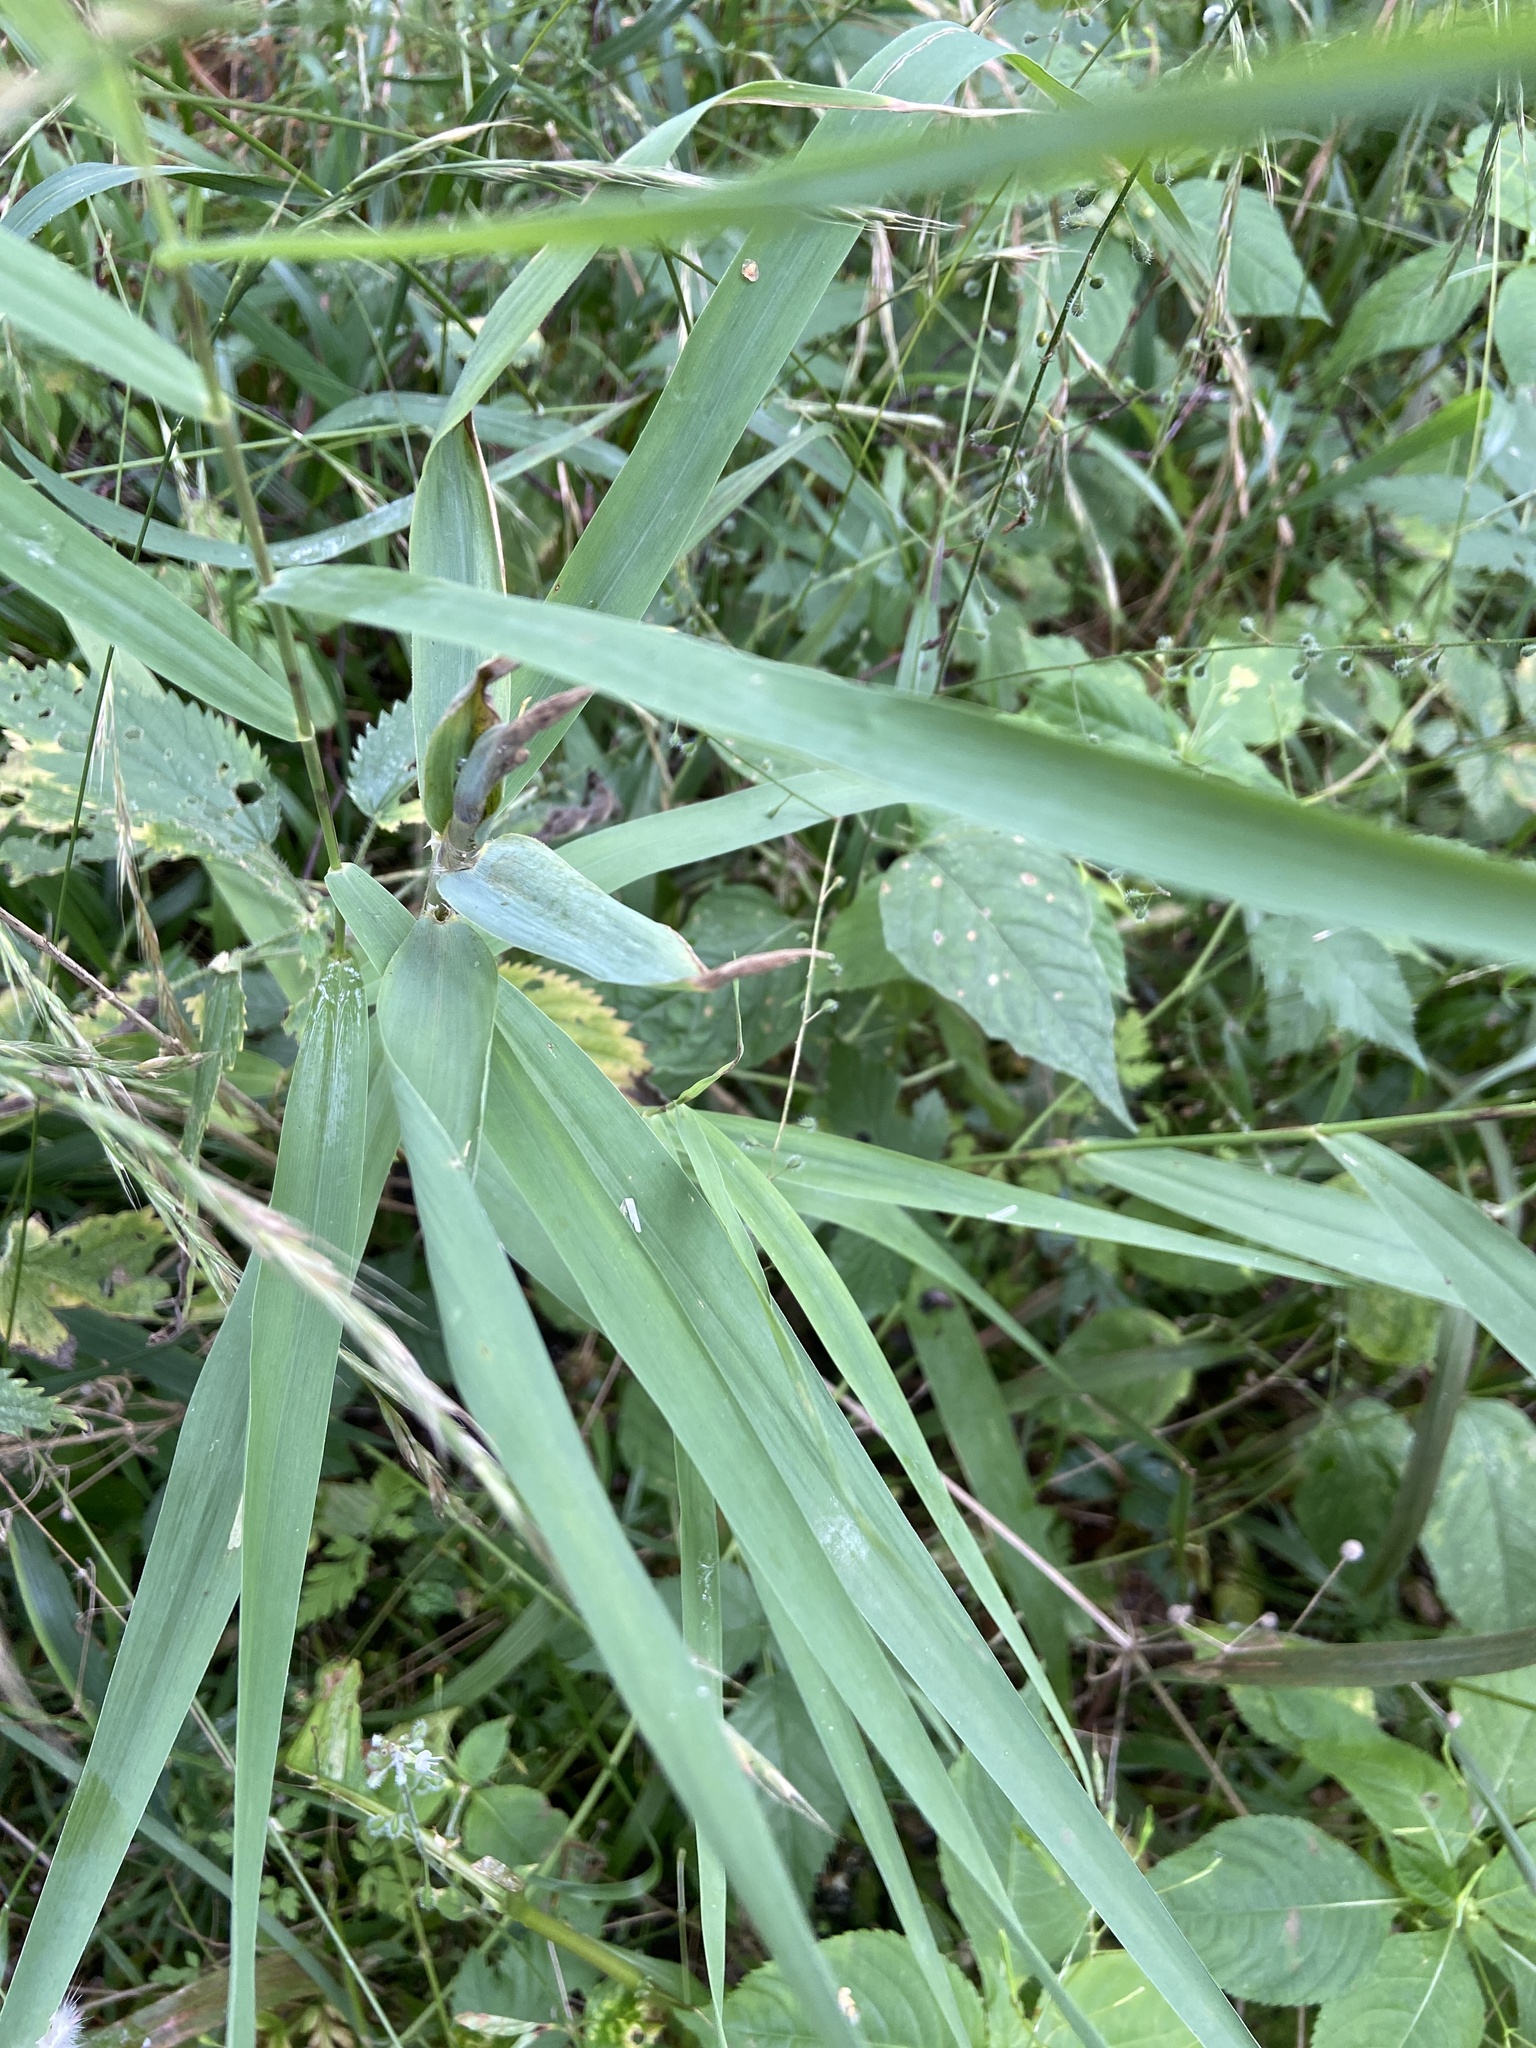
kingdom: Animalia
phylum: Arthropoda
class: Insecta
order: Lepidoptera
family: Erebidae
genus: Calliteara
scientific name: Calliteara pudibunda
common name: Pale tussock
